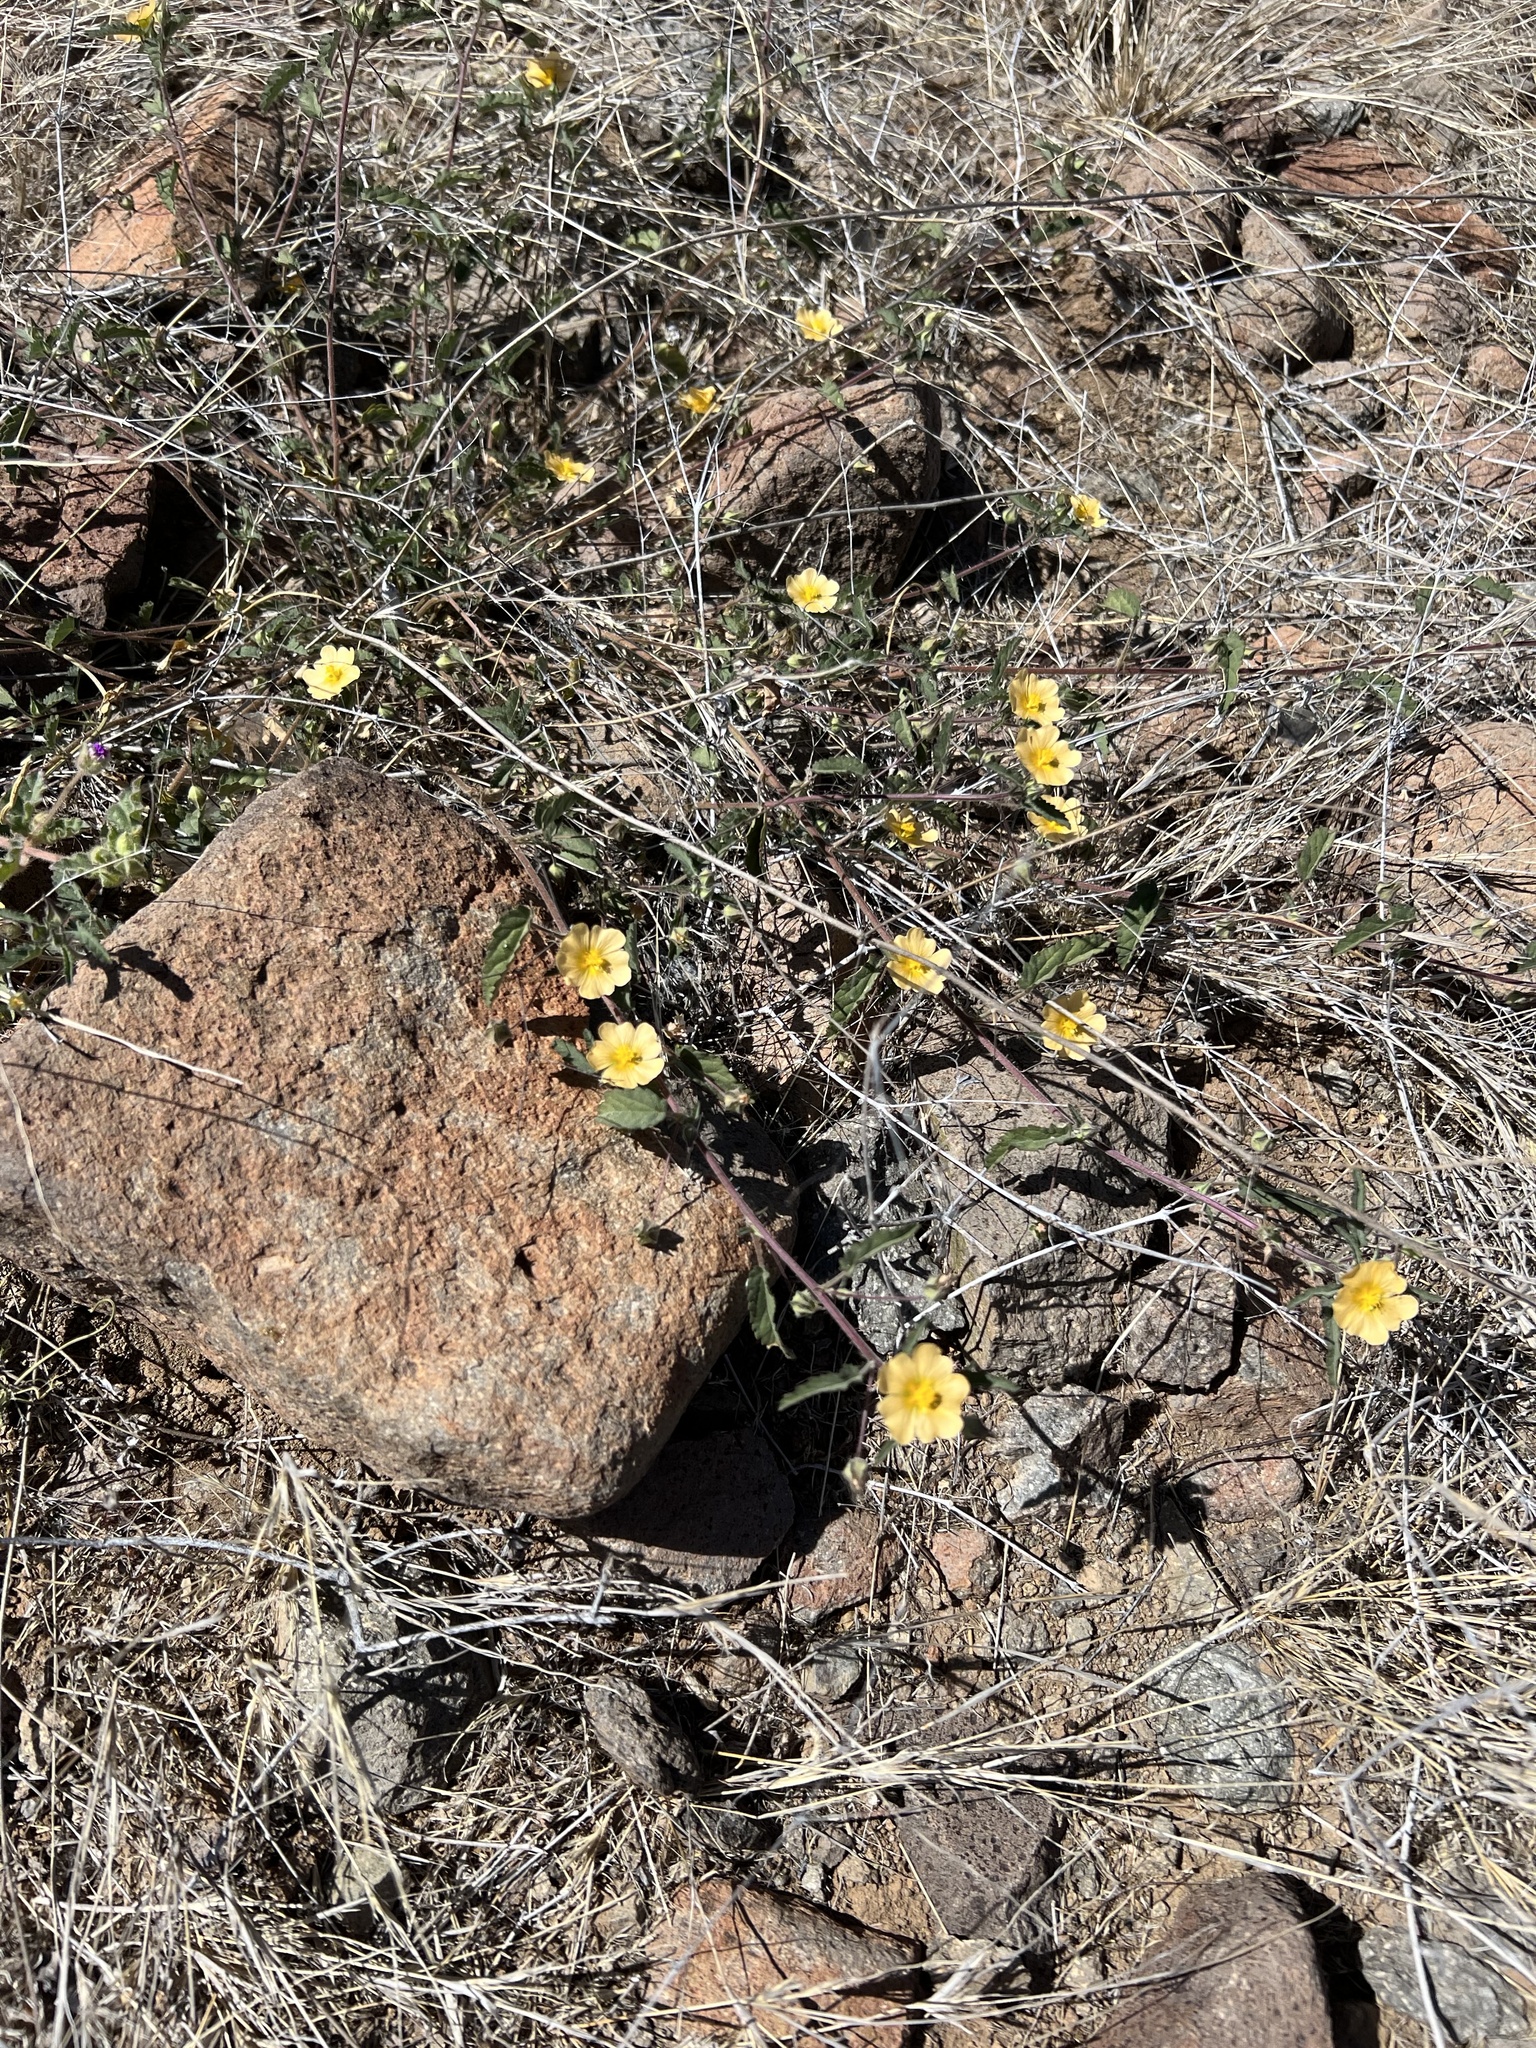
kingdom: Plantae
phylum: Tracheophyta
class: Magnoliopsida
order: Malvales
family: Malvaceae
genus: Sida
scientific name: Sida abutilifolia
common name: Spreading fanpetals
